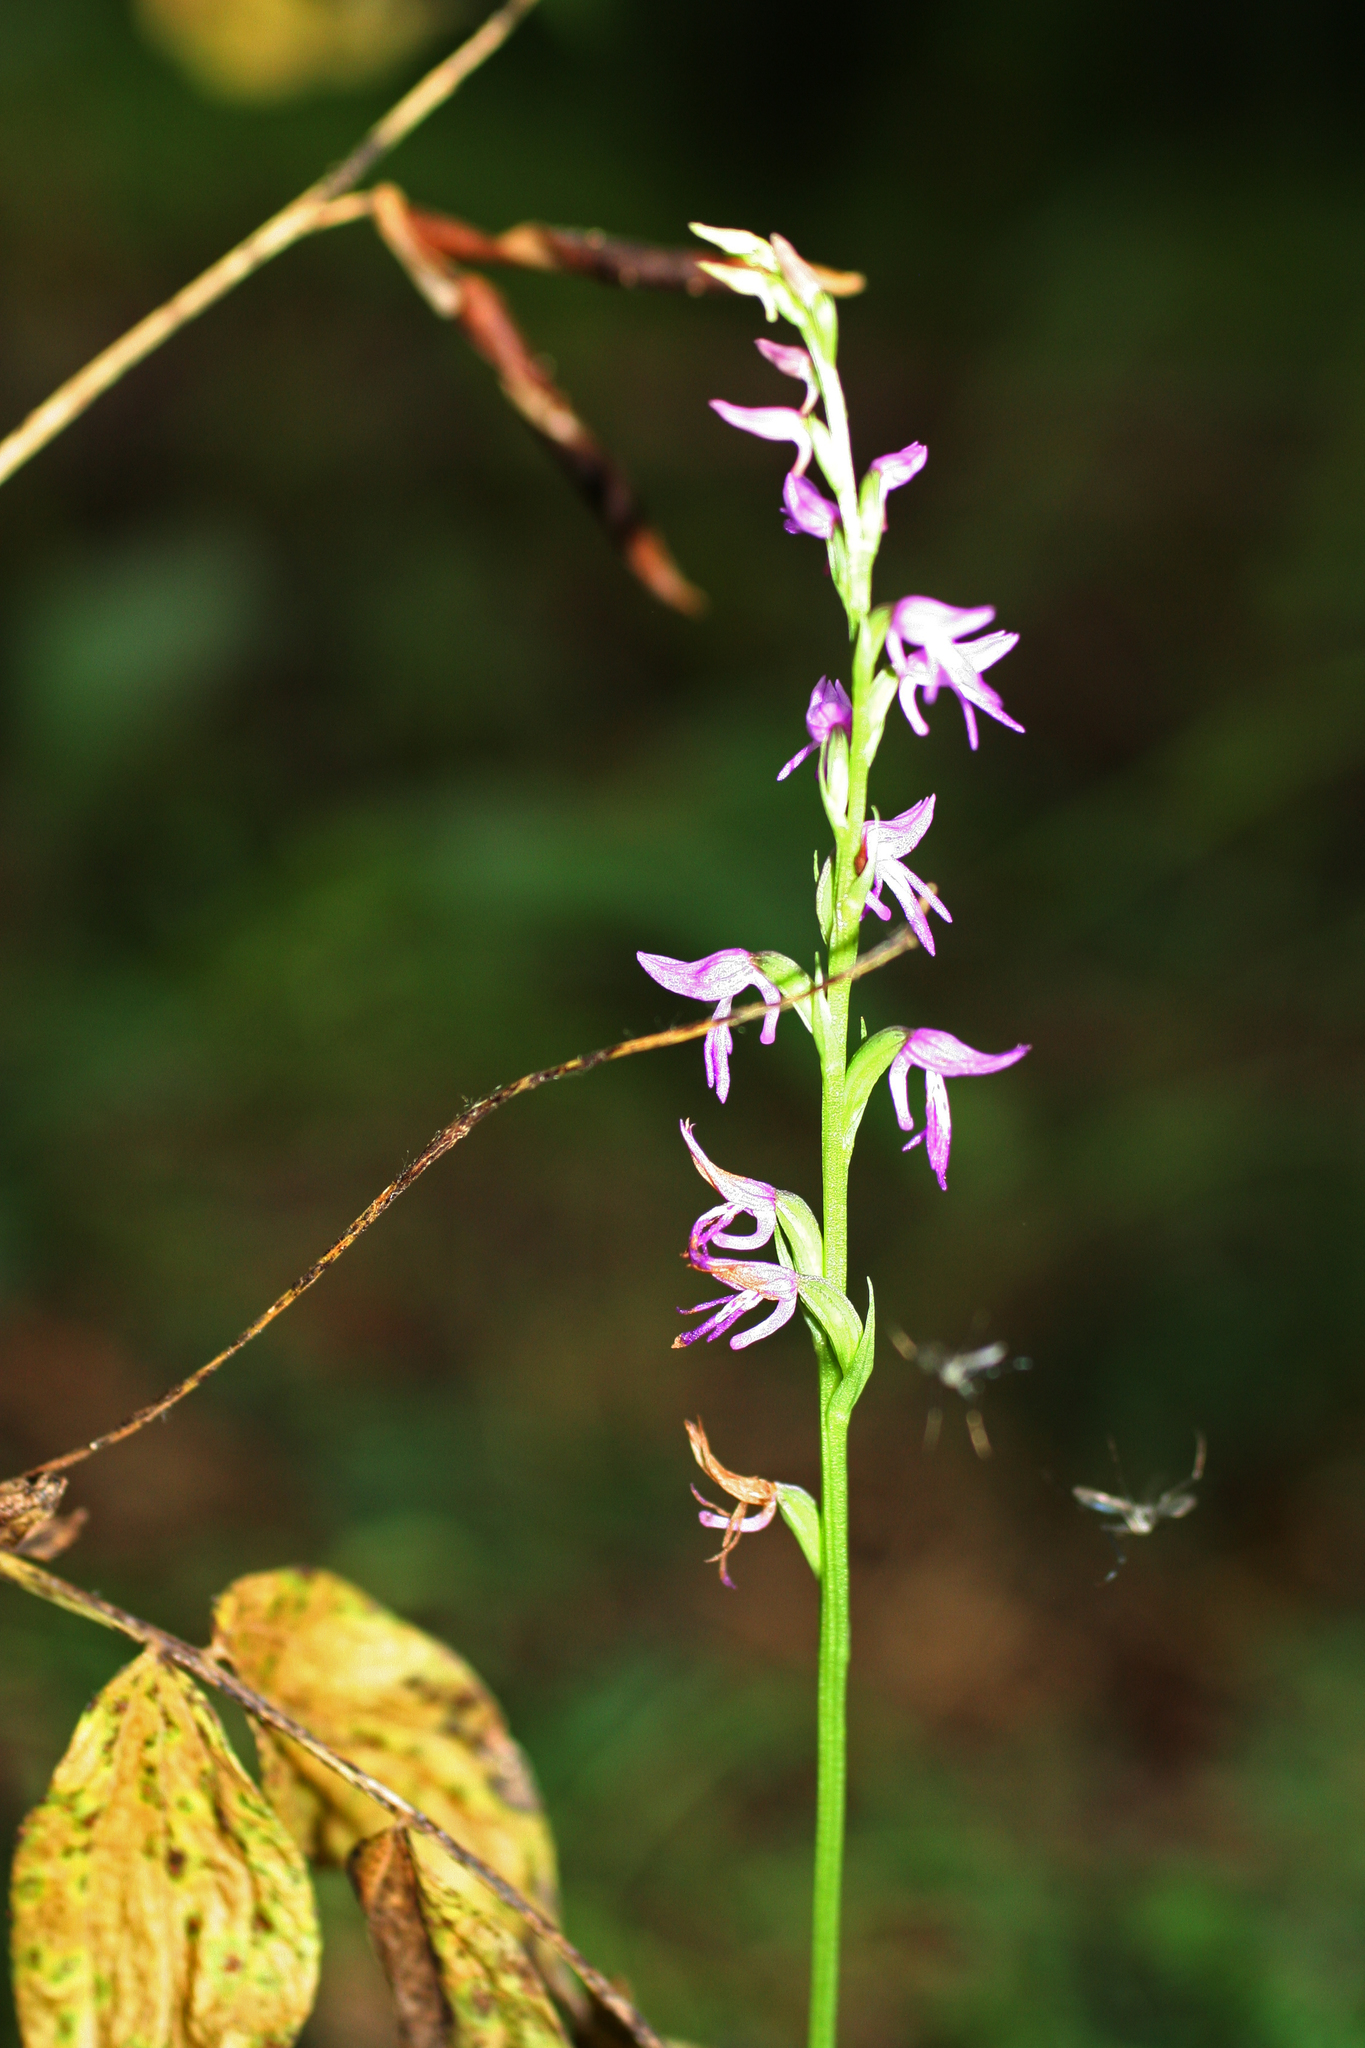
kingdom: Plantae
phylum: Tracheophyta
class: Liliopsida
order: Asparagales
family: Orchidaceae
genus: Hemipilia
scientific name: Hemipilia cucullata
